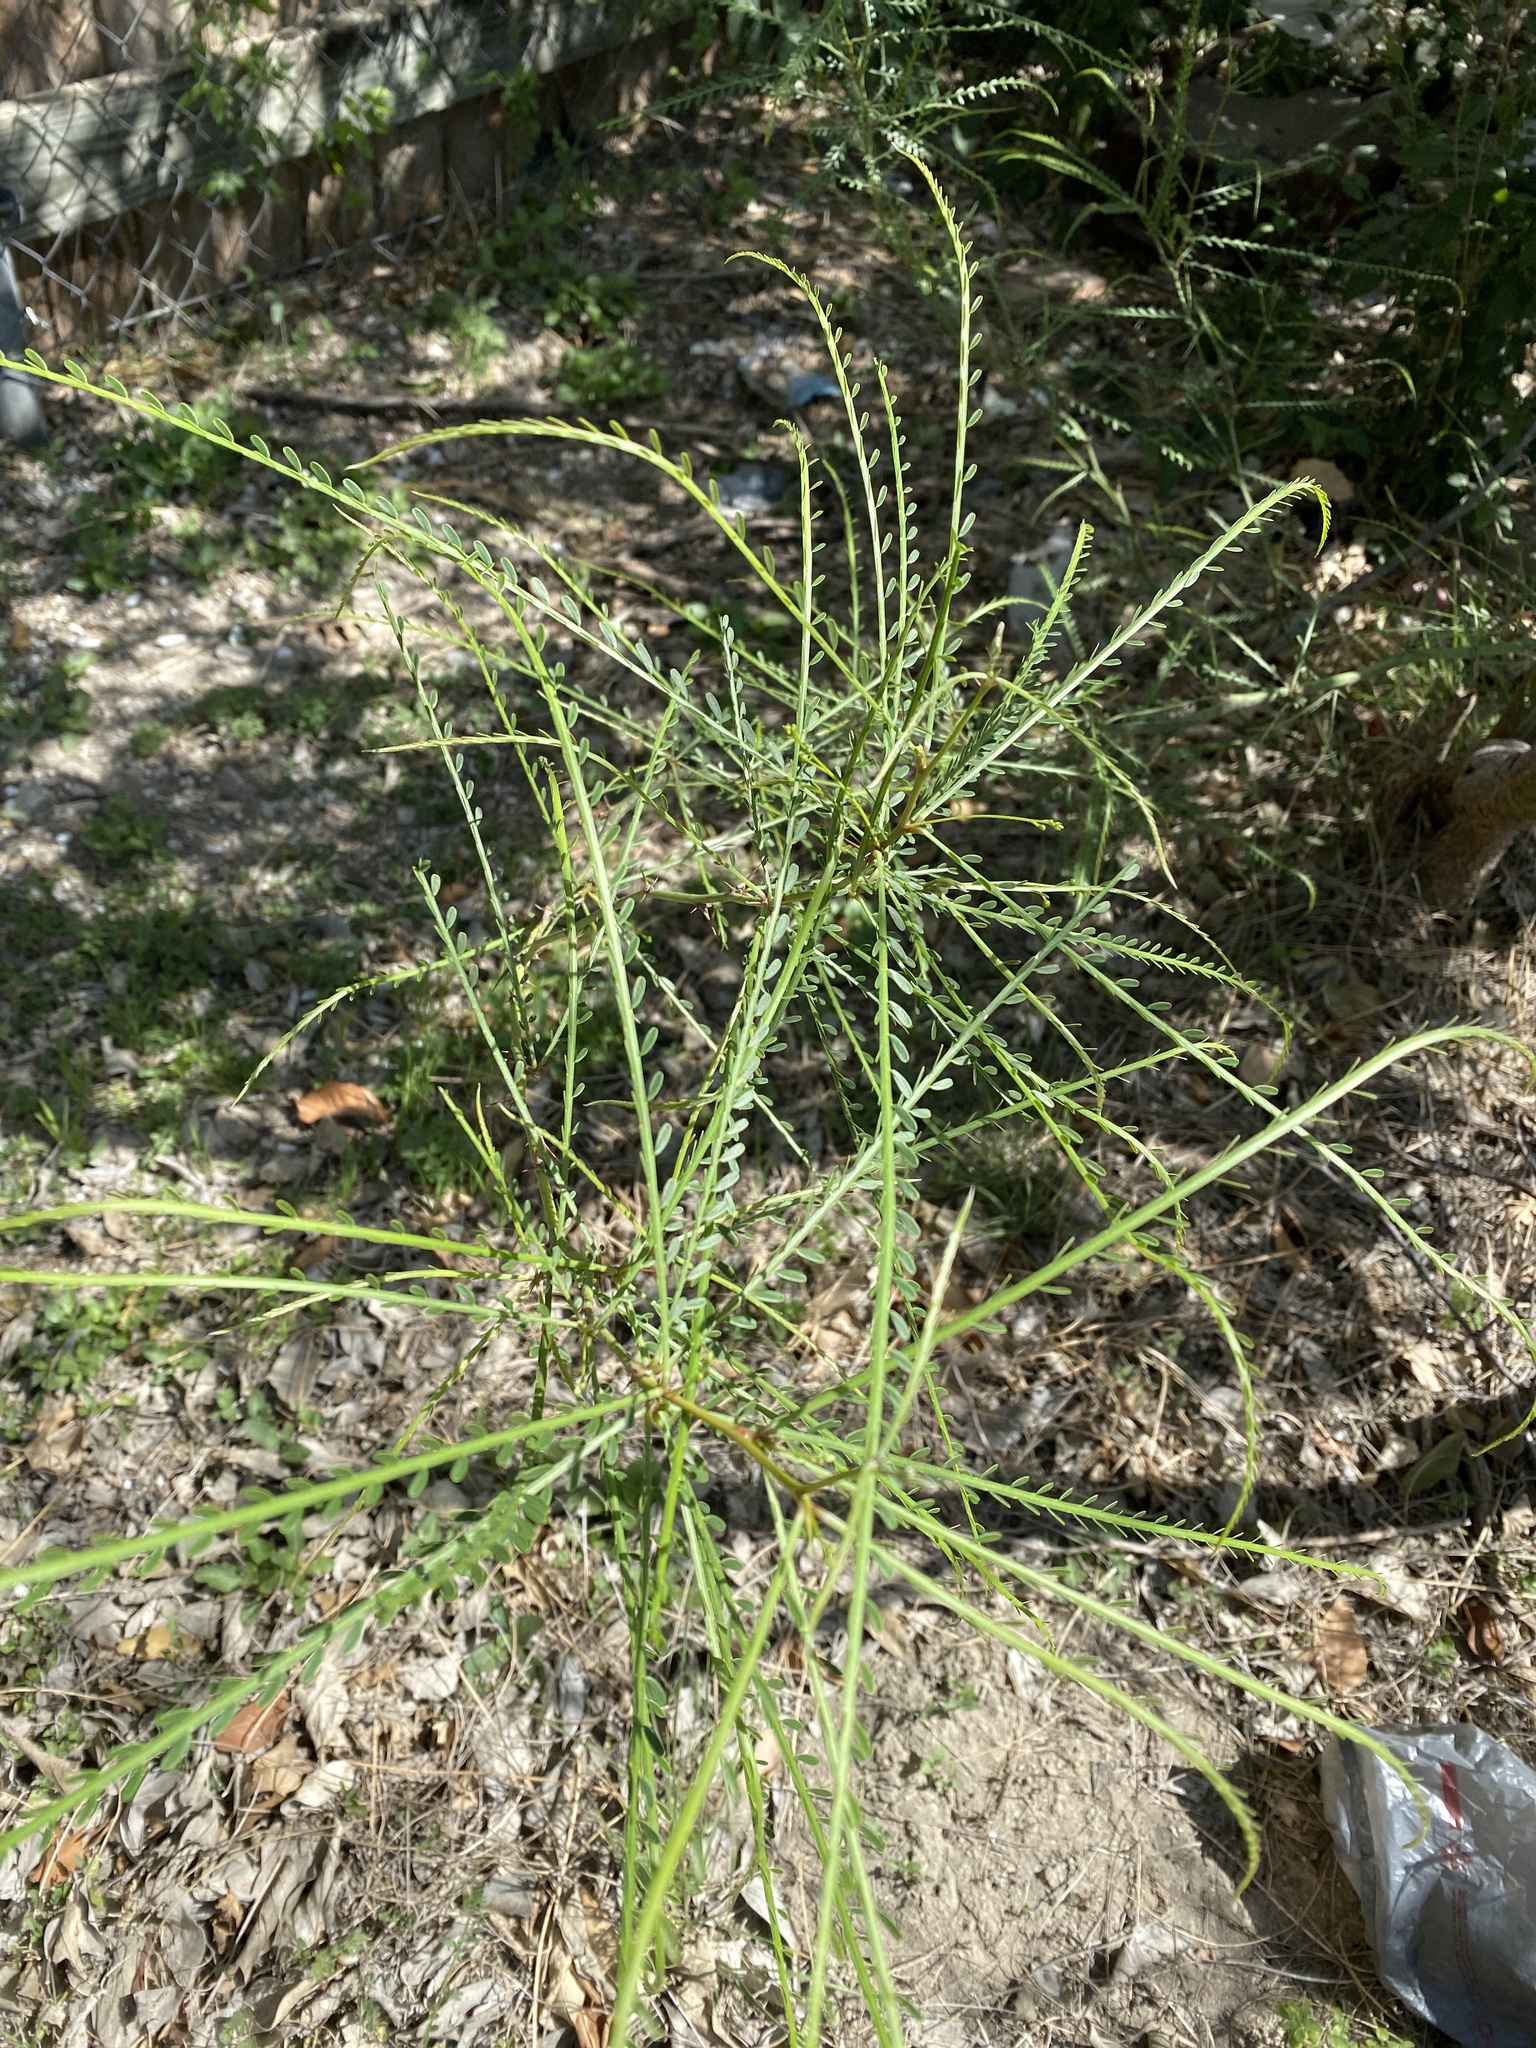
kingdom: Plantae
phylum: Tracheophyta
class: Magnoliopsida
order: Fabales
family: Fabaceae
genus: Parkinsonia
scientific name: Parkinsonia aculeata
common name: Jerusalem thorn
